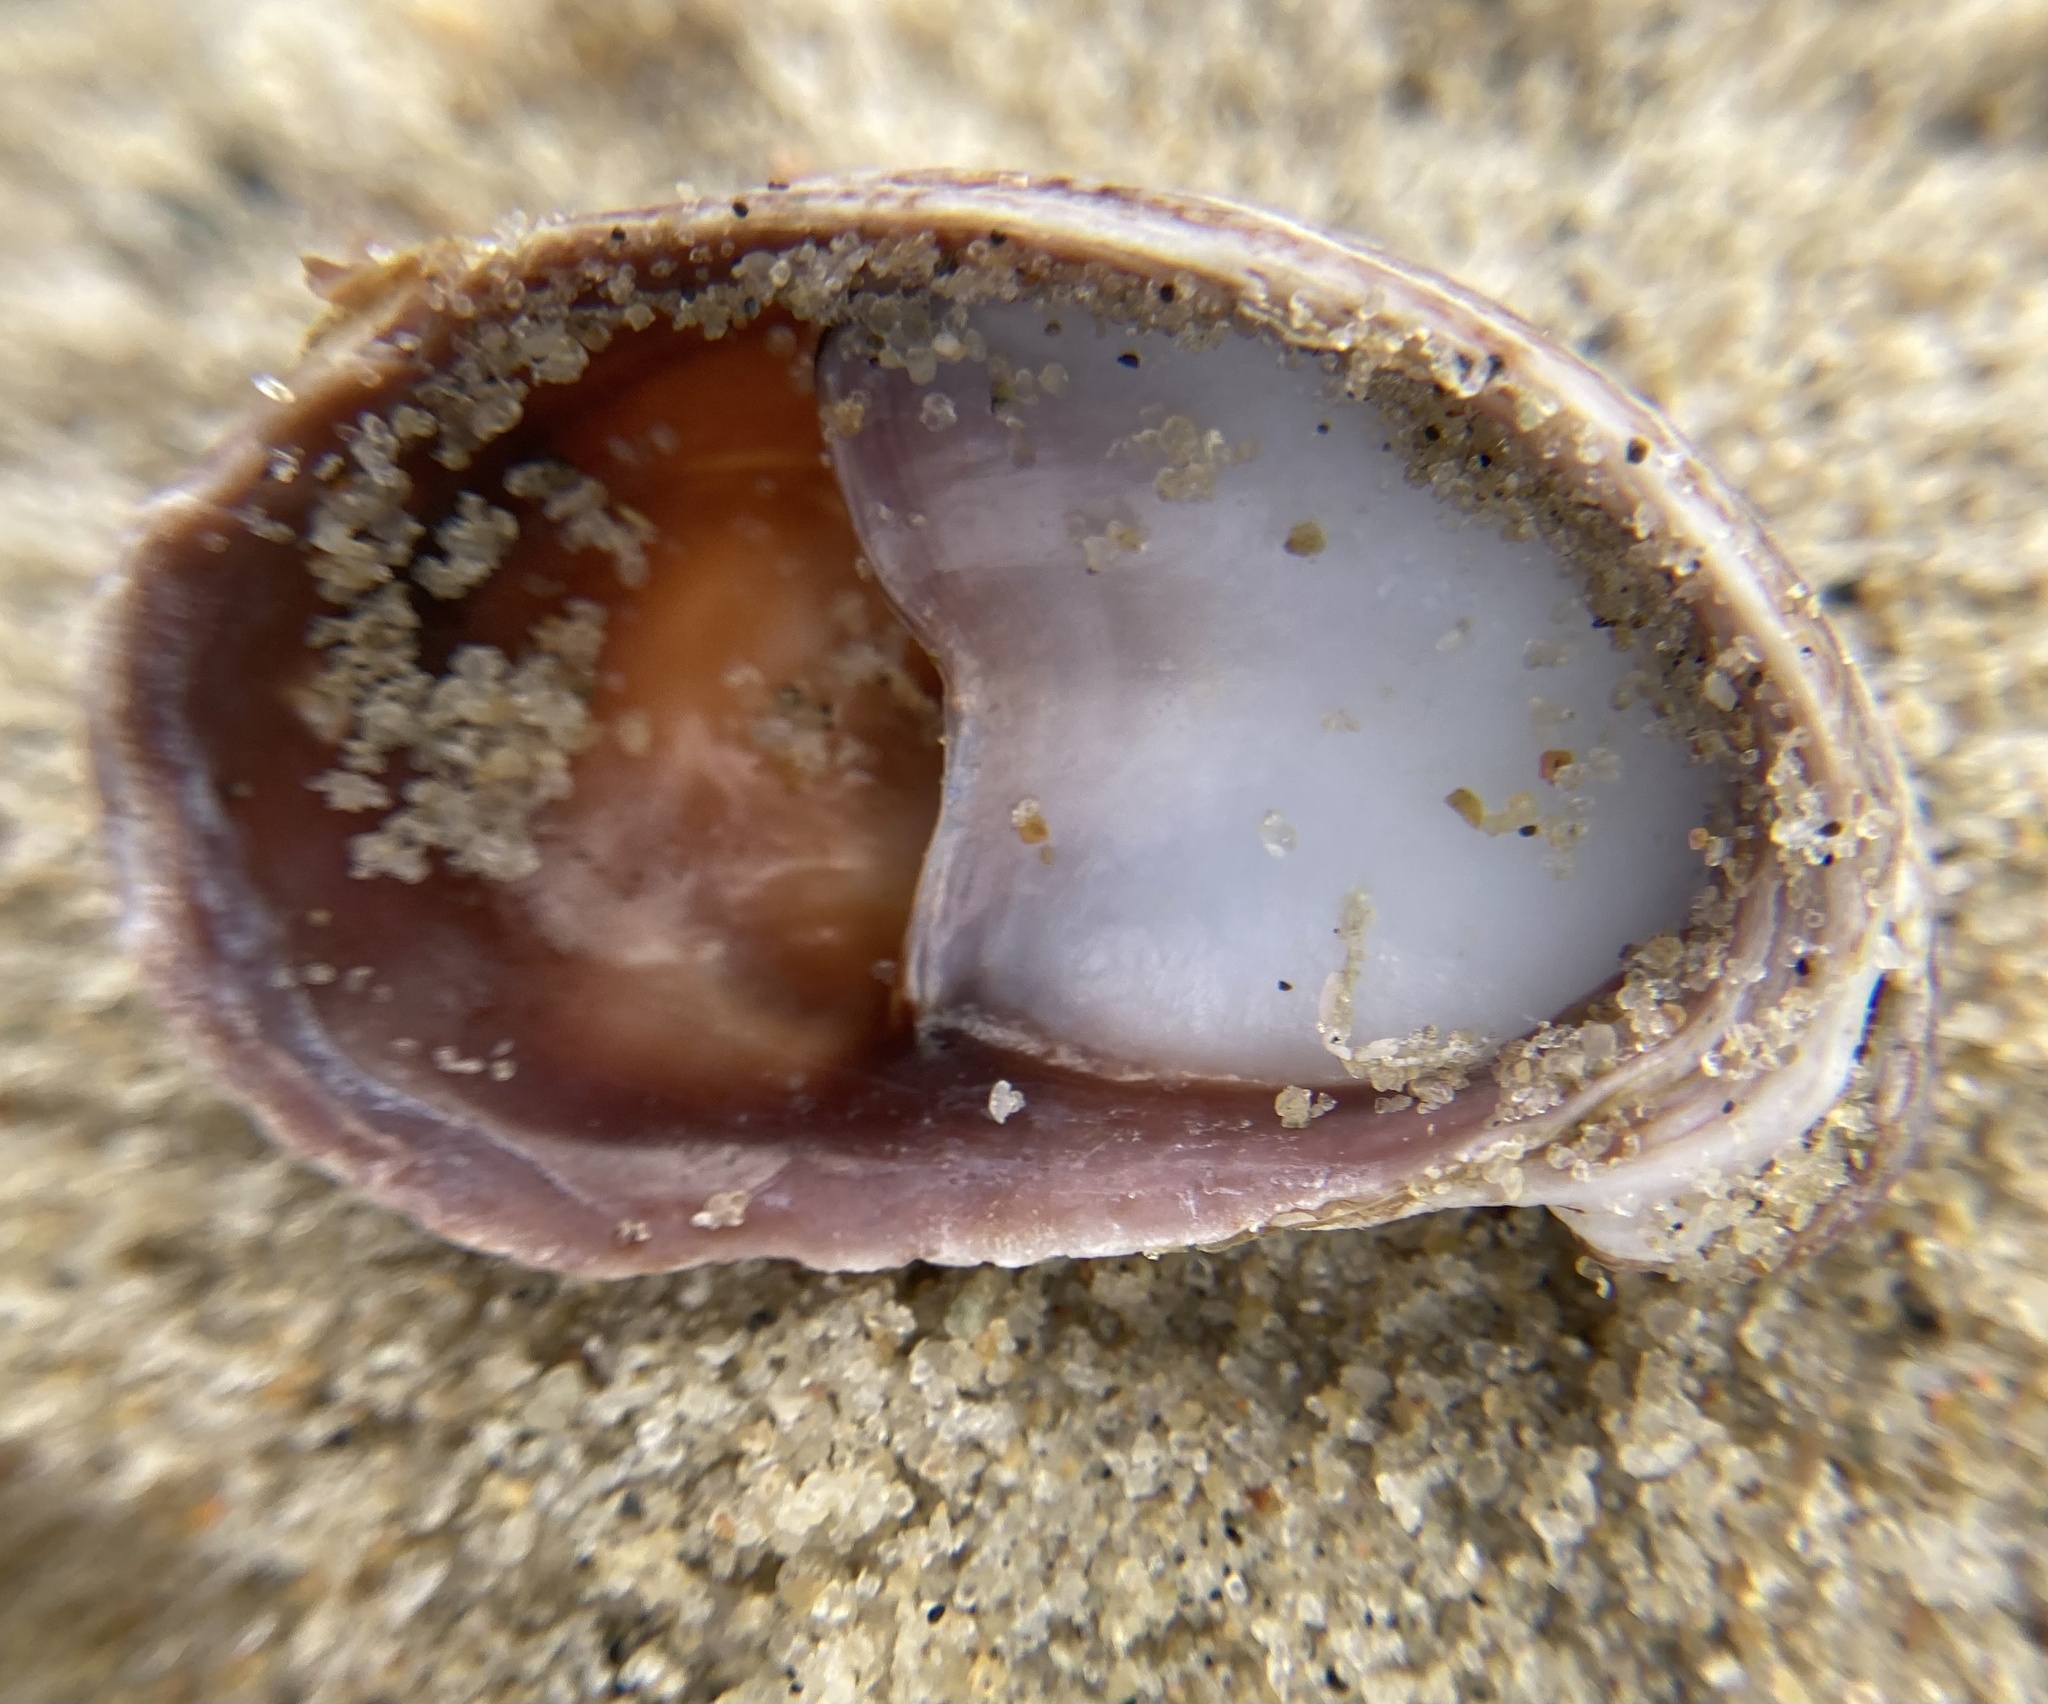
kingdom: Animalia
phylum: Mollusca
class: Gastropoda
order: Littorinimorpha
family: Calyptraeidae
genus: Crepidula
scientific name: Crepidula fornicata
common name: Slipper limpet
